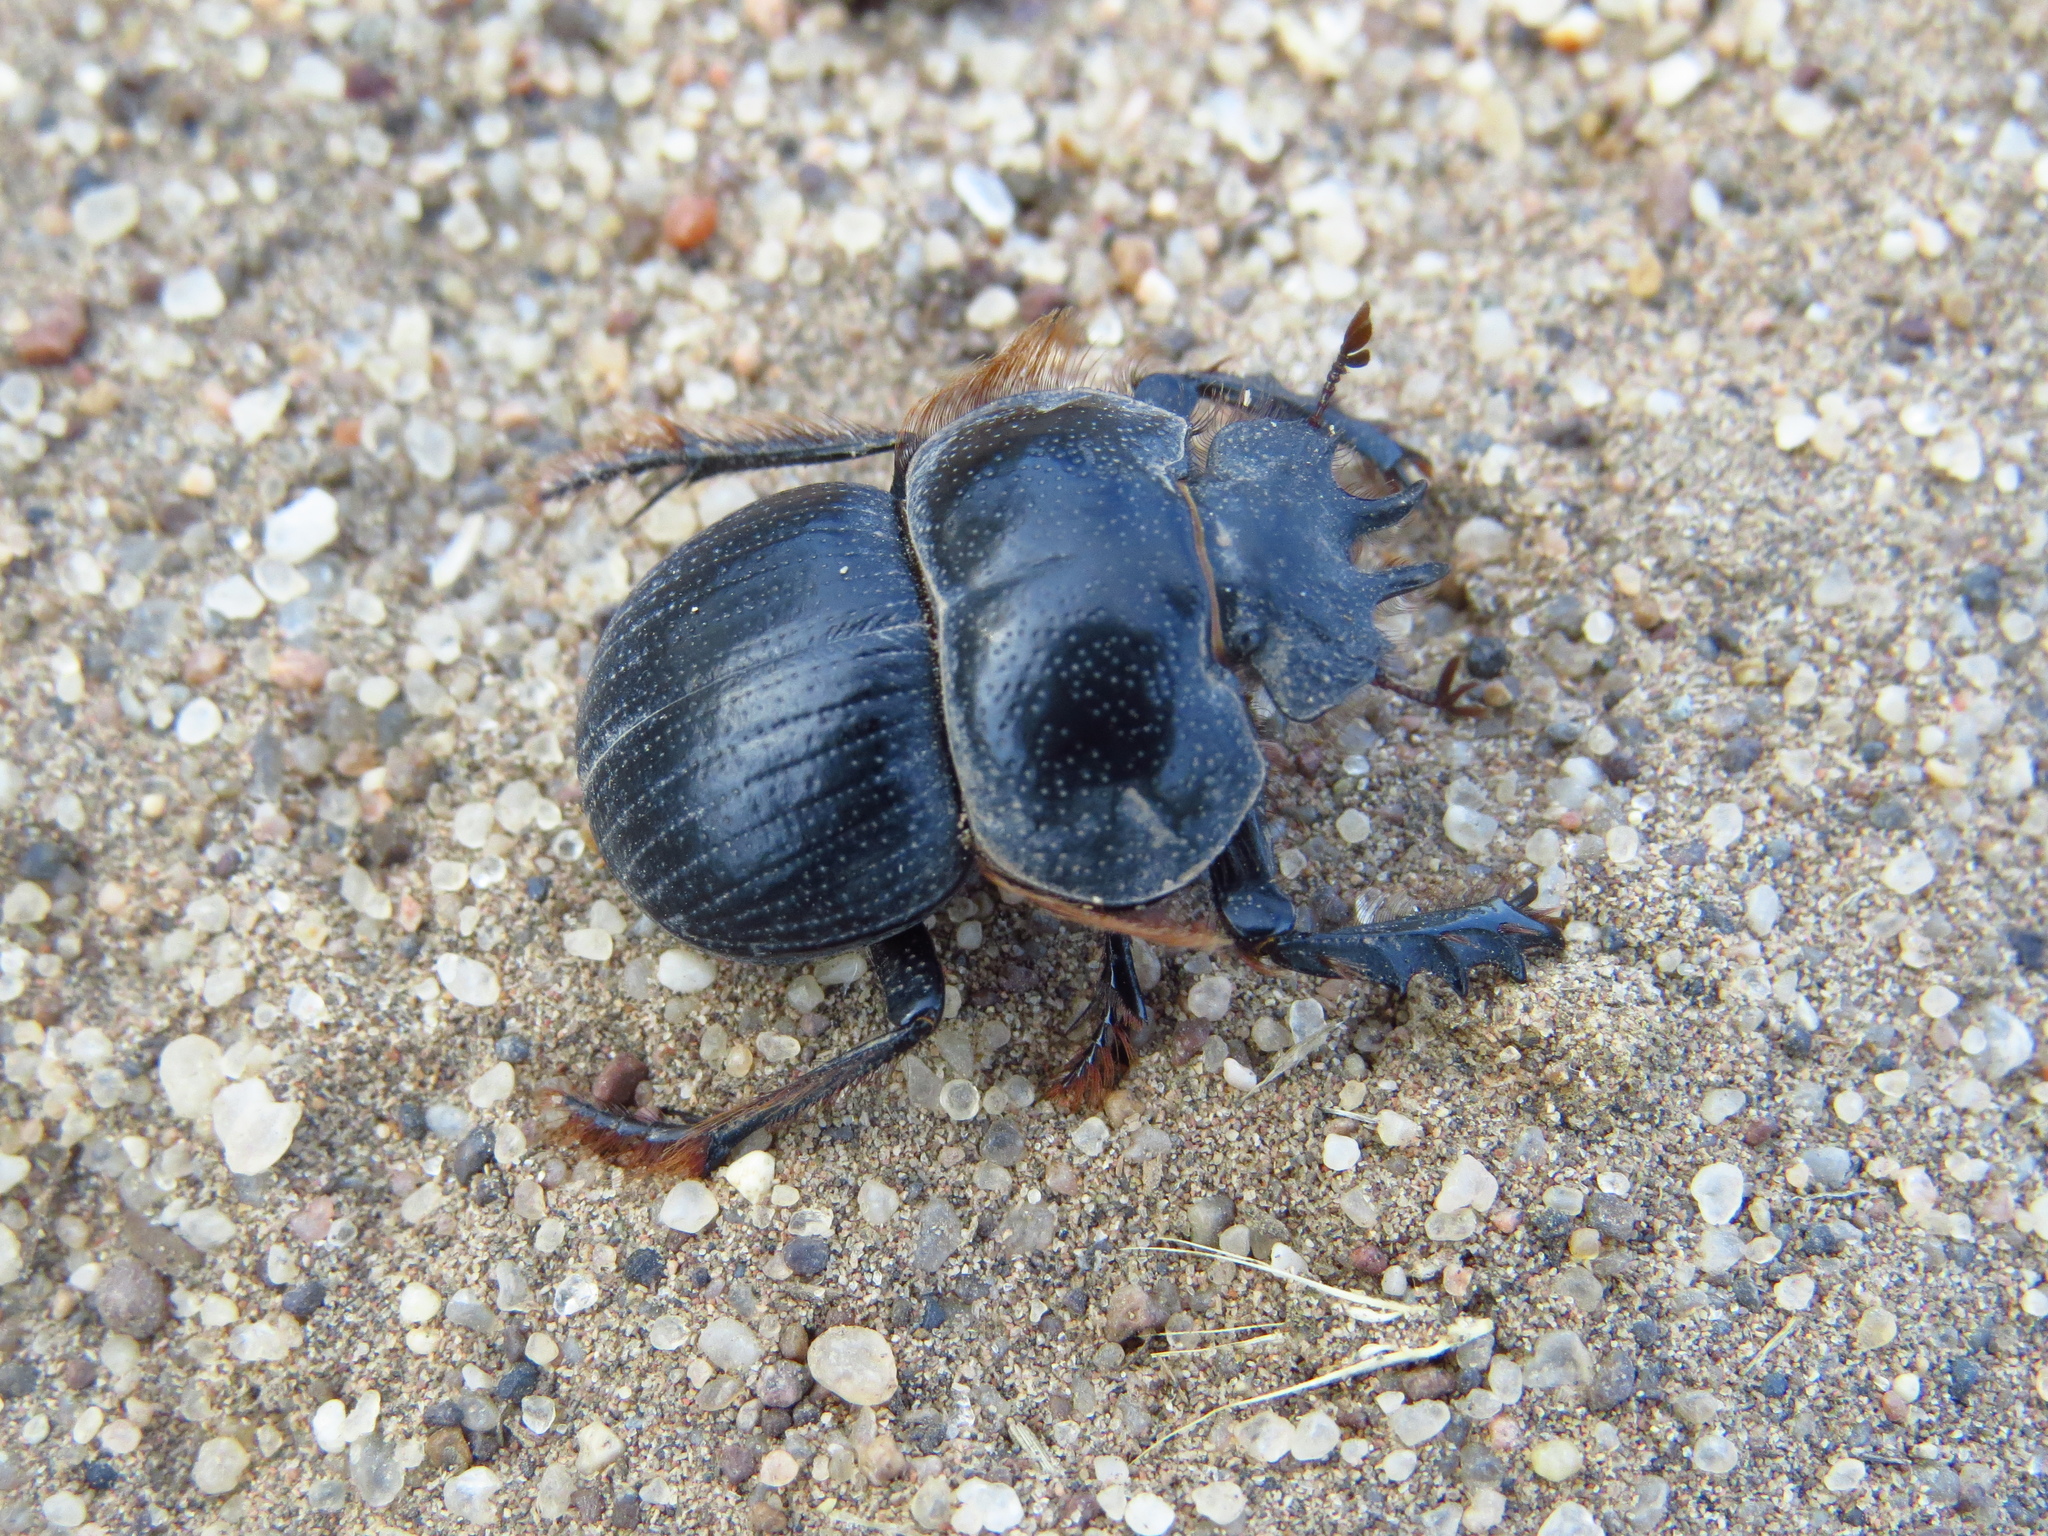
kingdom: Animalia
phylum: Arthropoda
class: Insecta
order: Coleoptera
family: Scarabaeidae
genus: Eucranium
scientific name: Eucranium planicolle
